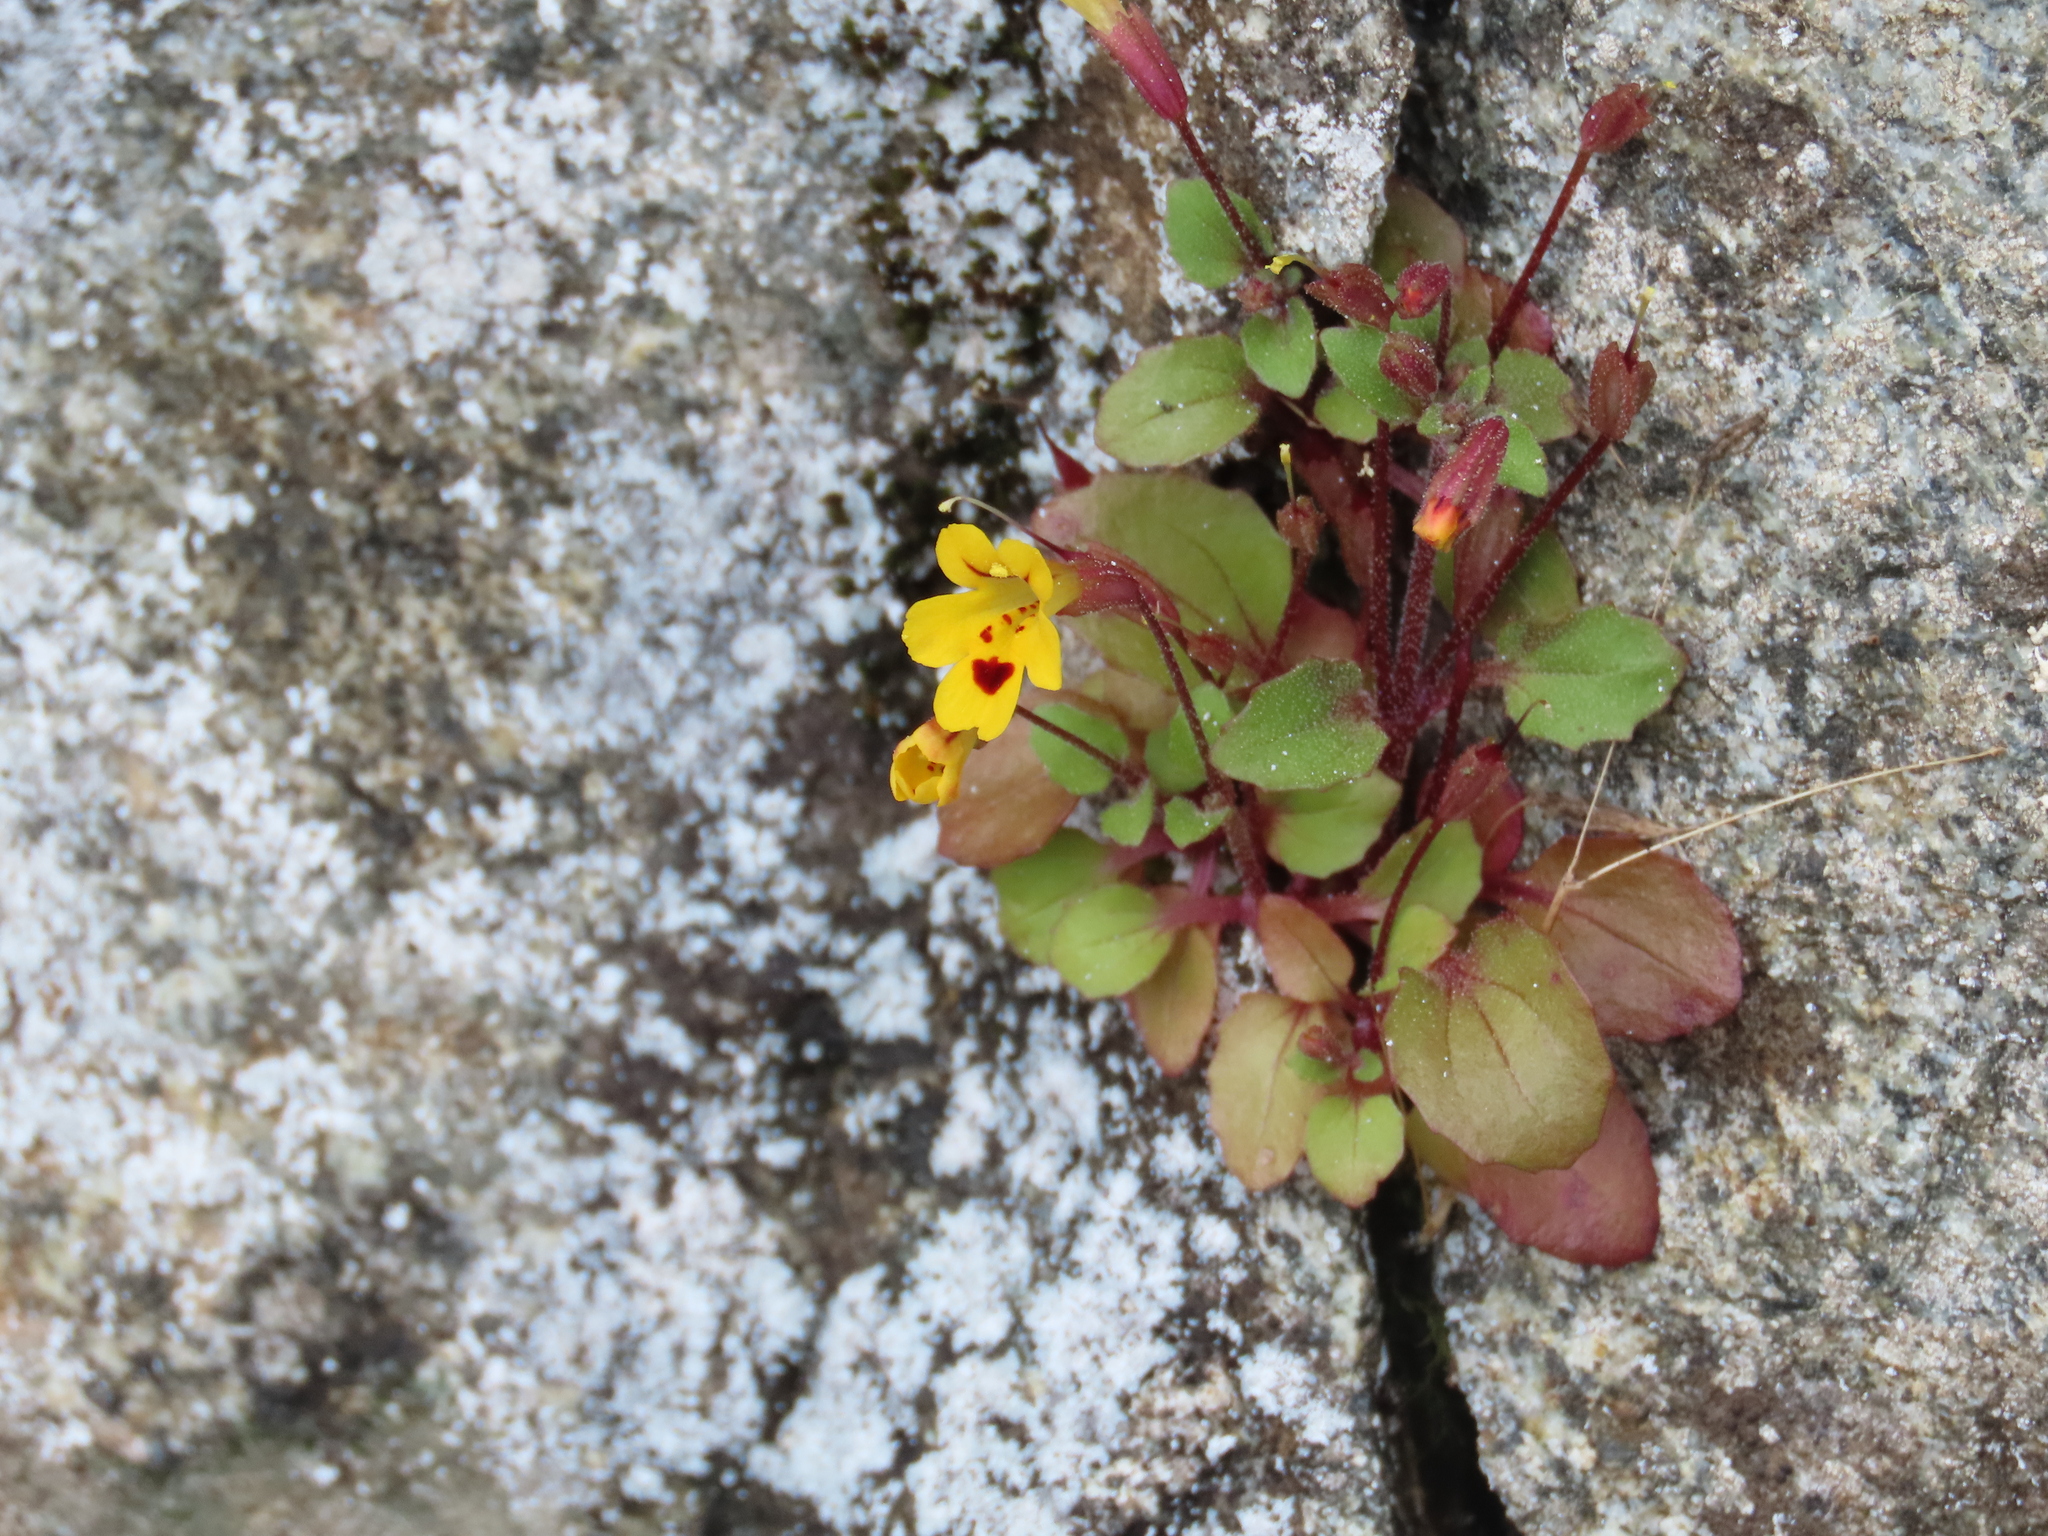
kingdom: Plantae
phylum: Tracheophyta
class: Magnoliopsida
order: Lamiales
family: Phrymaceae
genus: Erythranthe
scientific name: Erythranthe alsinoides
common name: Chickweed monkeyflower
